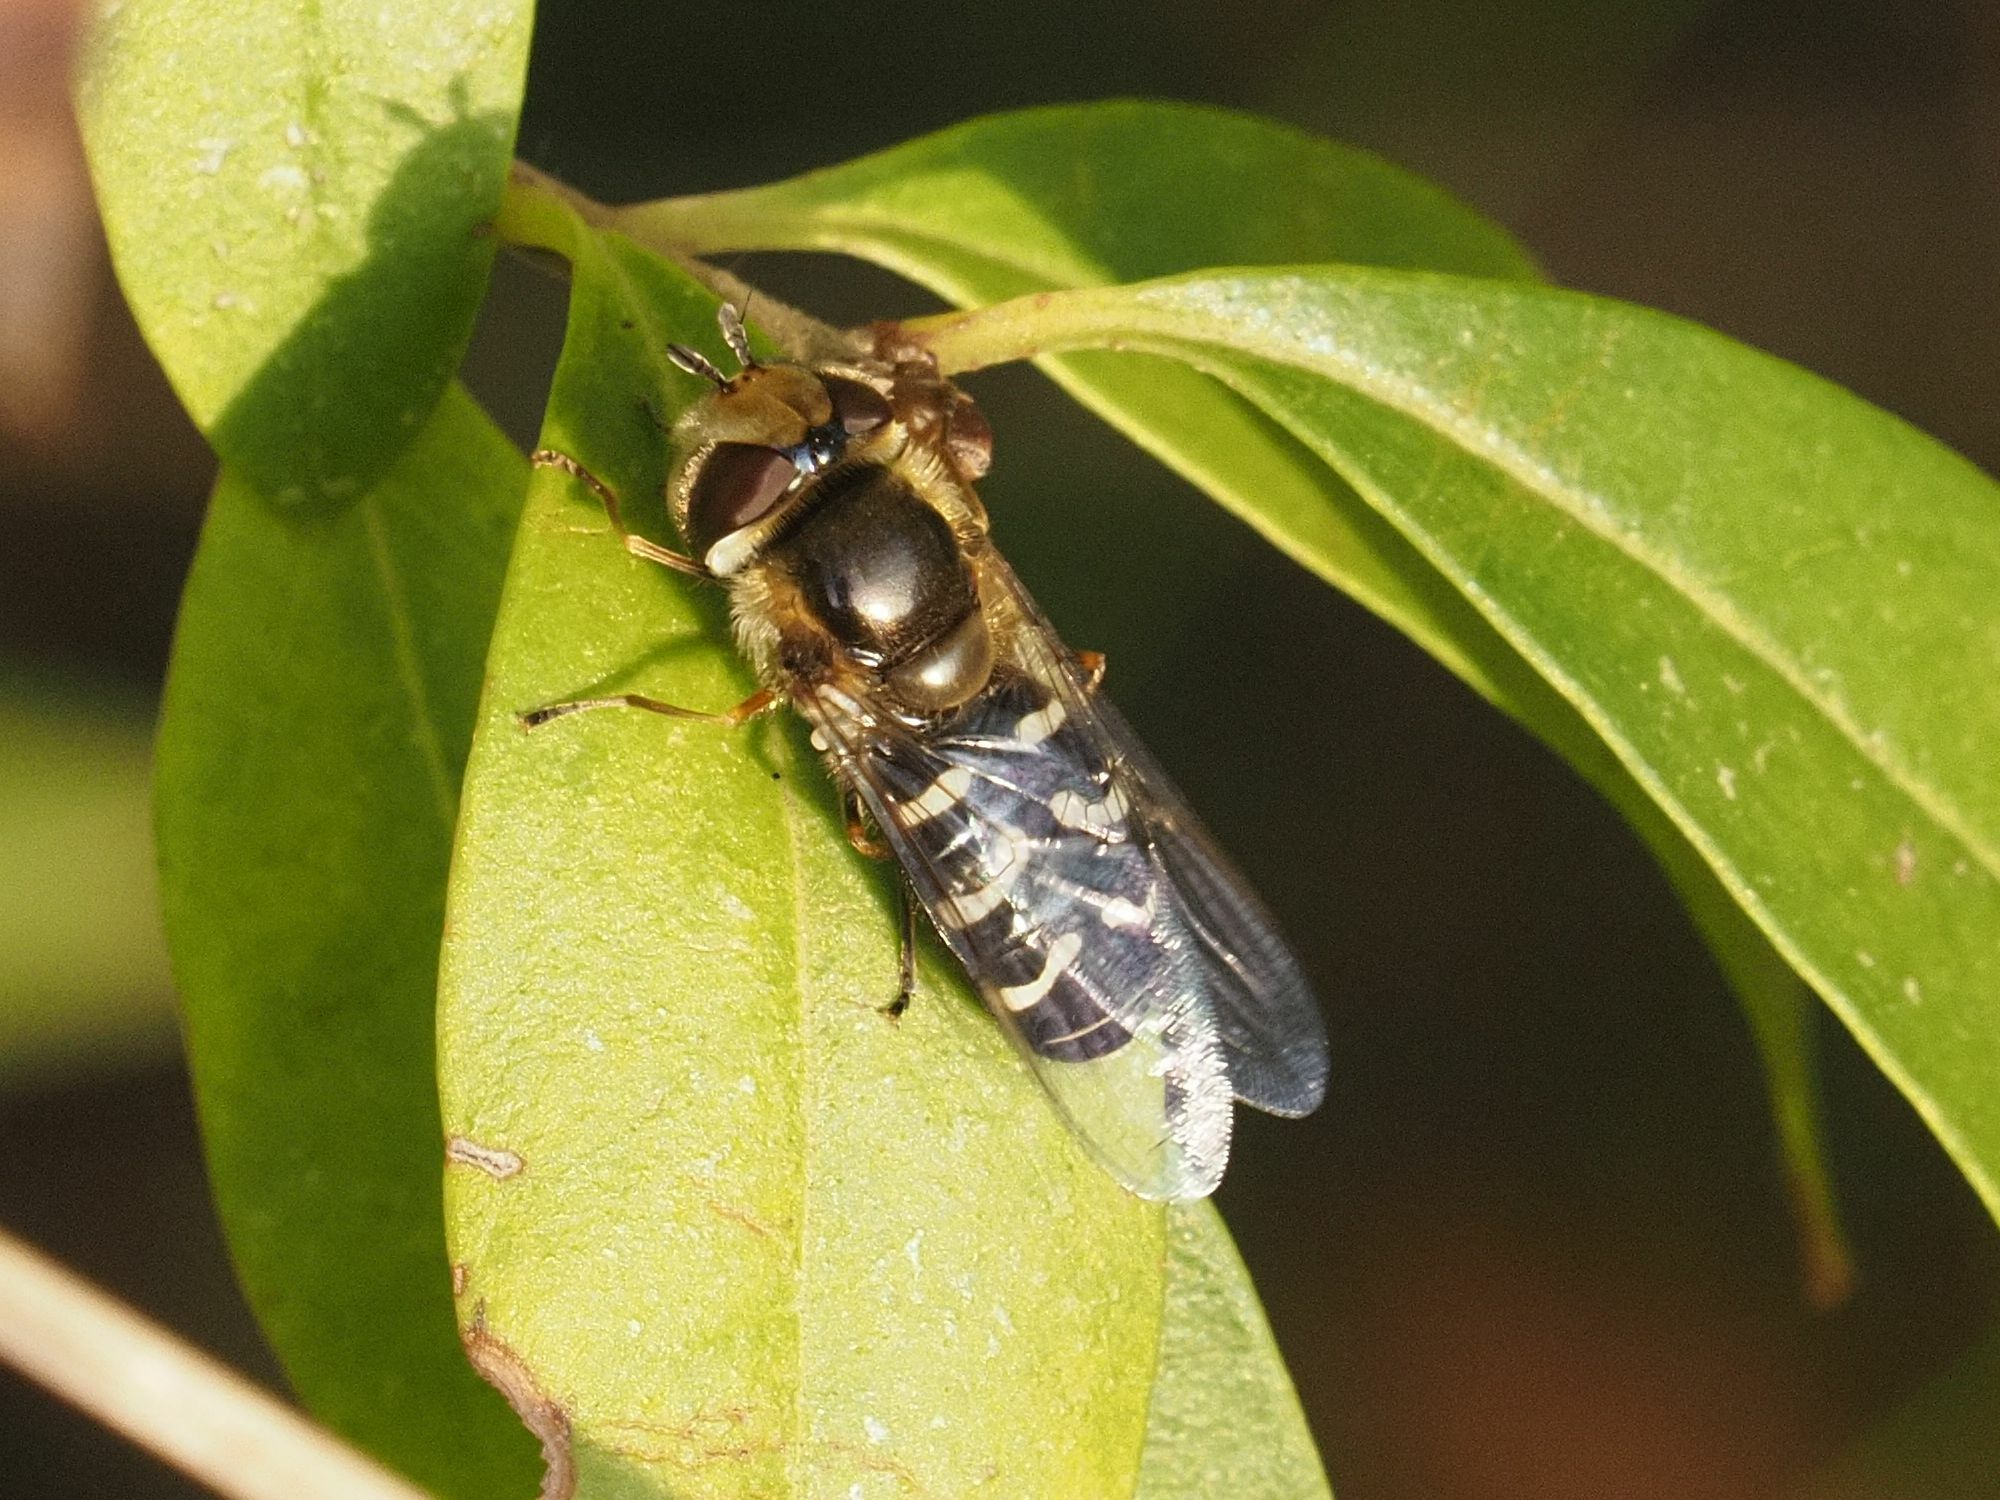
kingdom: Animalia
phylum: Arthropoda
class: Insecta
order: Diptera
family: Syrphidae
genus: Scaeva
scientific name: Scaeva pyrastri
